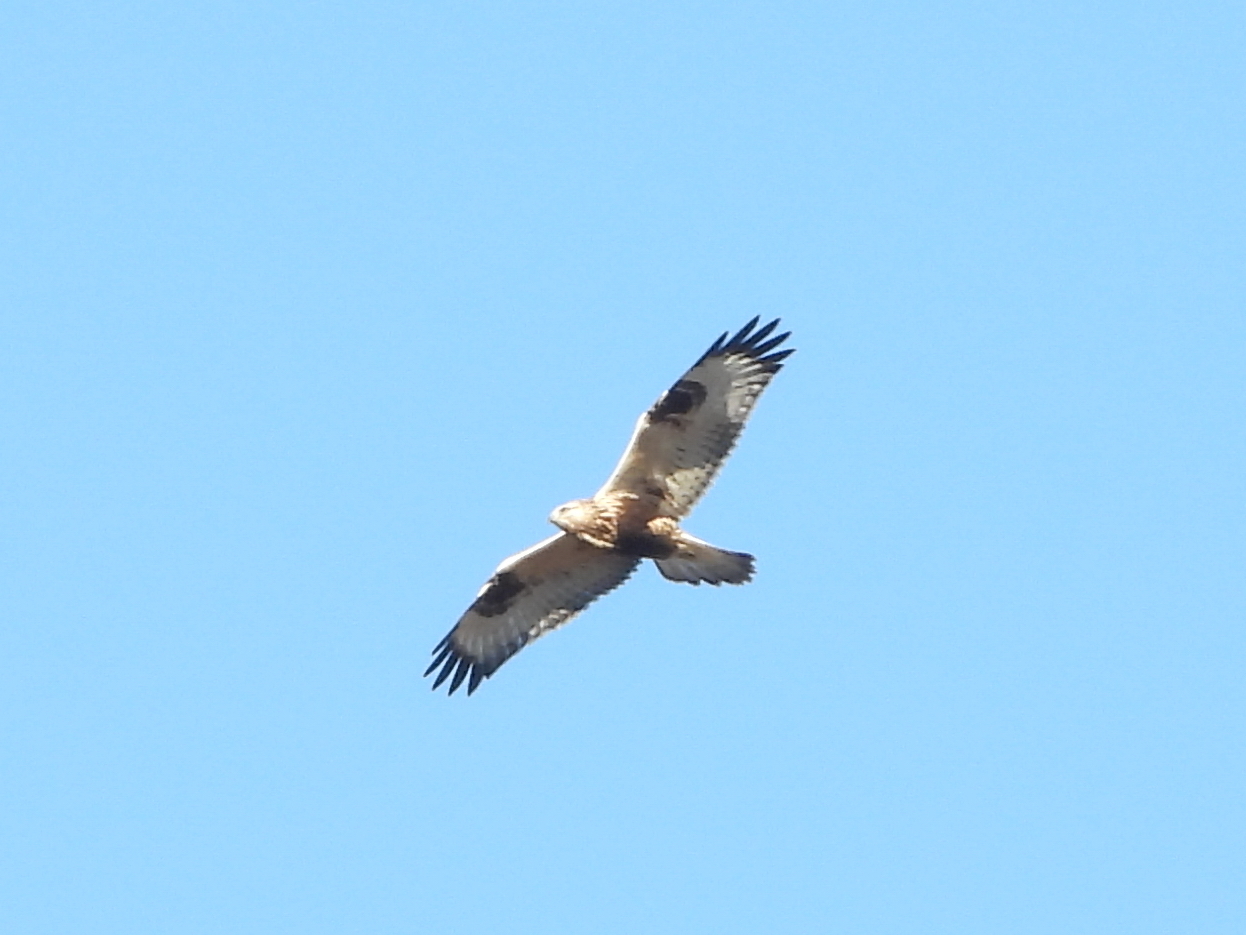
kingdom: Animalia
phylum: Chordata
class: Aves
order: Accipitriformes
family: Accipitridae
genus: Buteo
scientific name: Buteo lagopus
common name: Rough-legged buzzard
